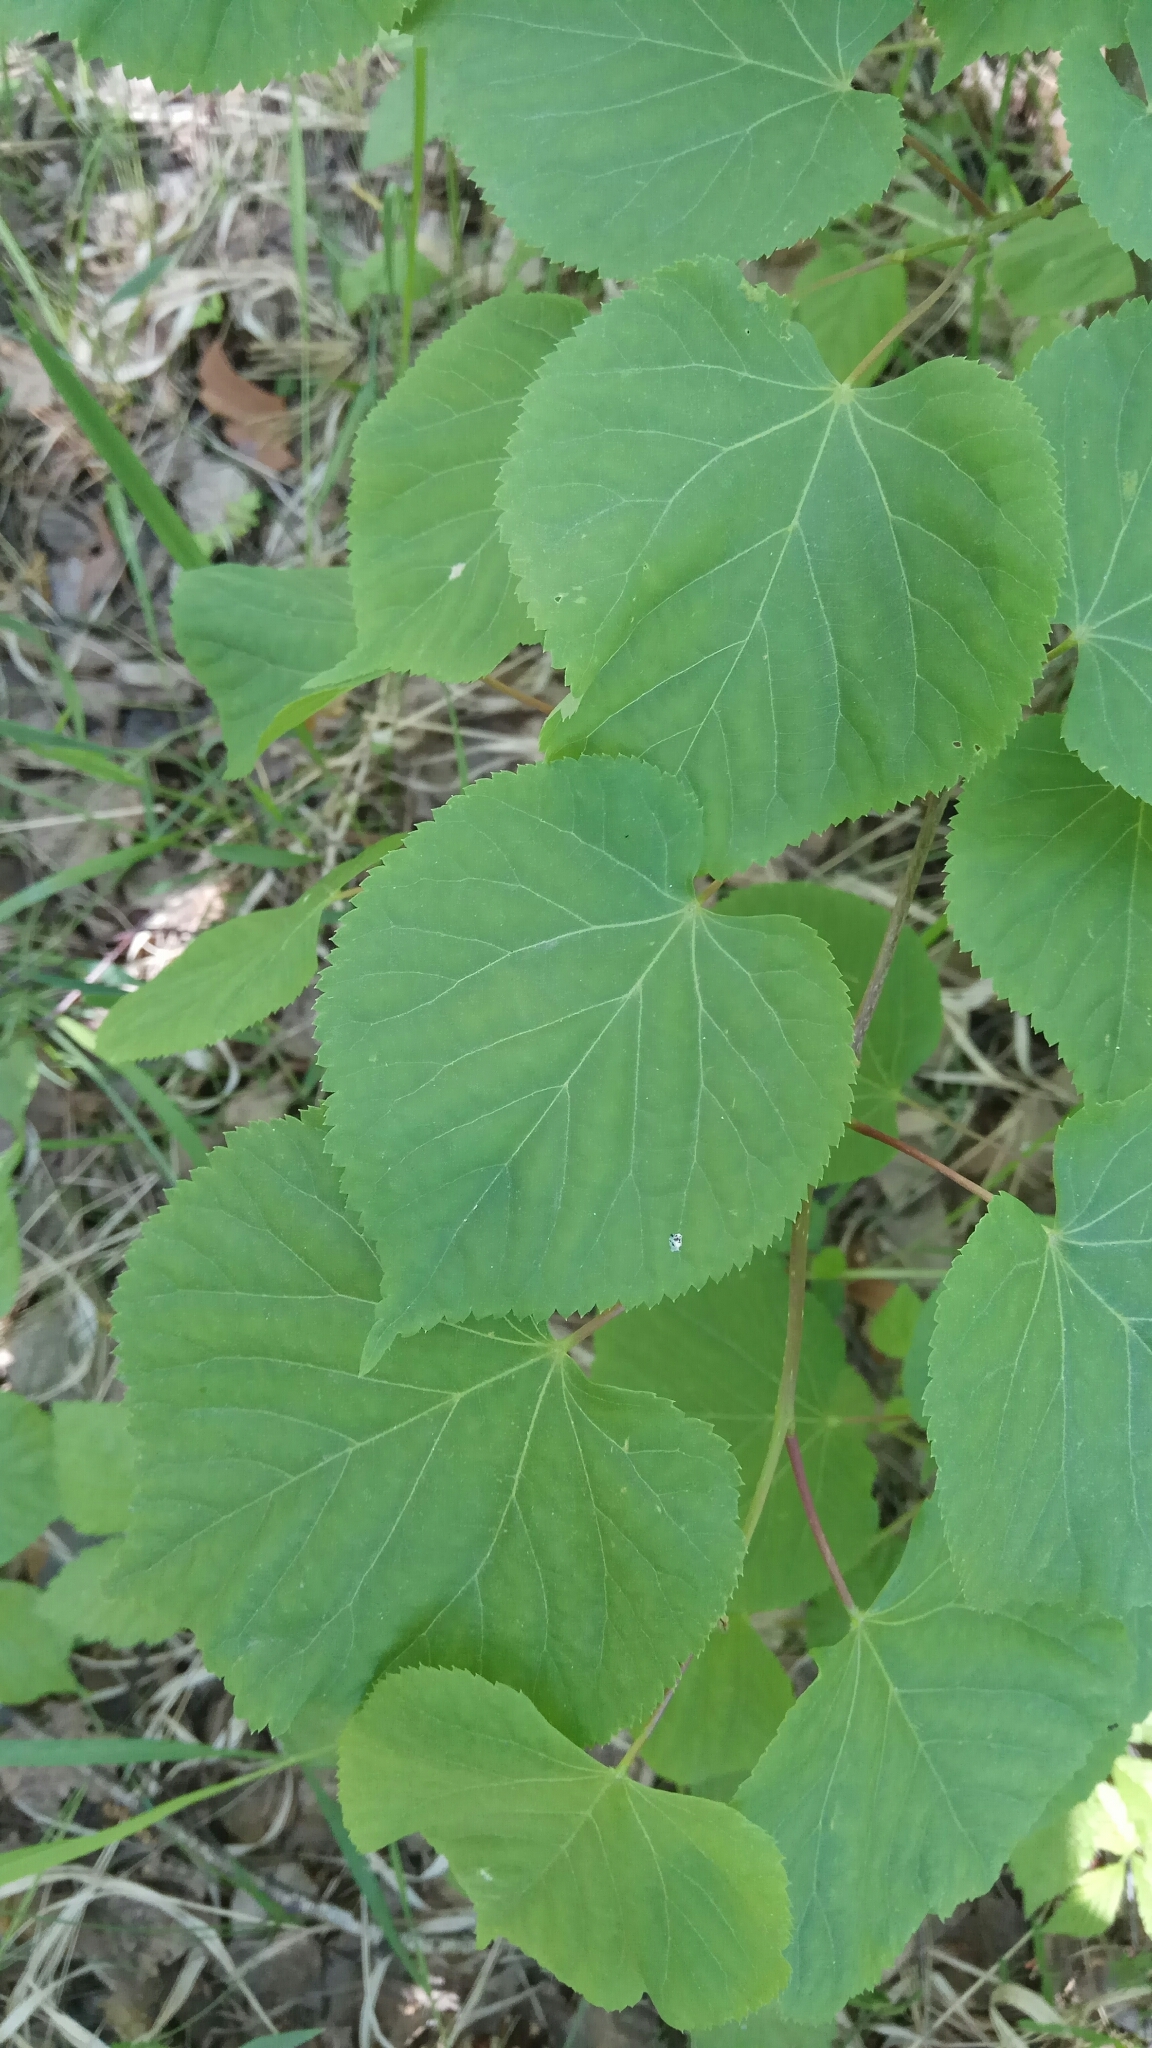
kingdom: Plantae
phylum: Tracheophyta
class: Magnoliopsida
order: Malvales
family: Malvaceae
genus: Tilia
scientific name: Tilia cordata
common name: Small-leaved lime
